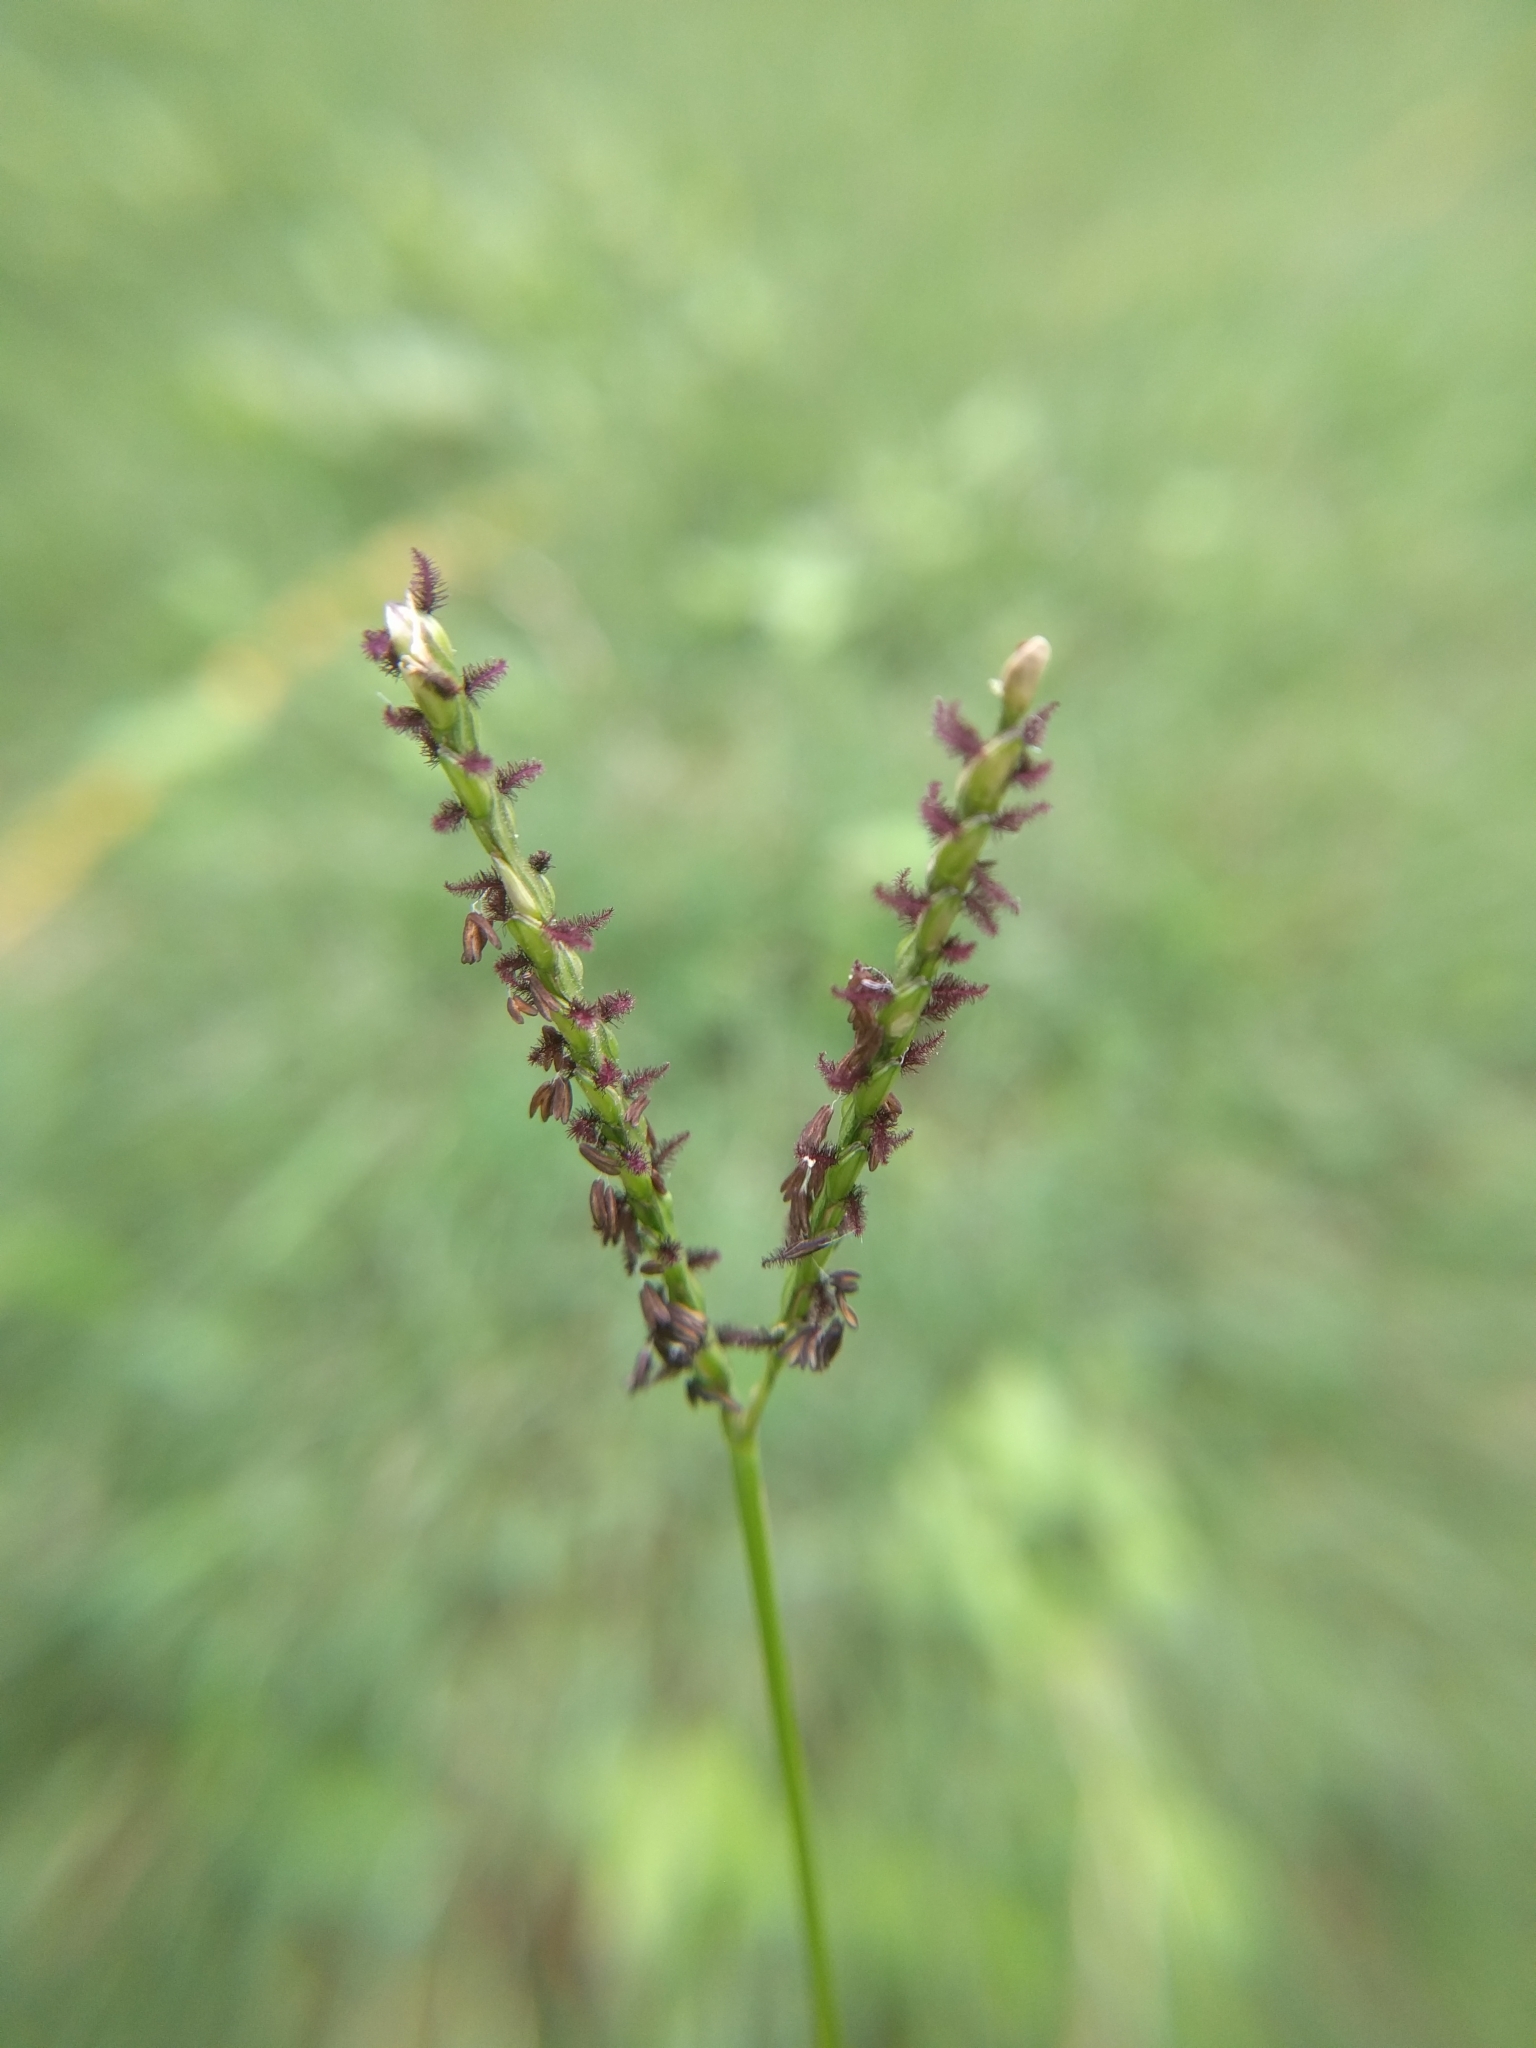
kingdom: Plantae
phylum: Tracheophyta
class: Liliopsida
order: Poales
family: Poaceae
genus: Paspalum
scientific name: Paspalum notatum
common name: Bahiagrass
